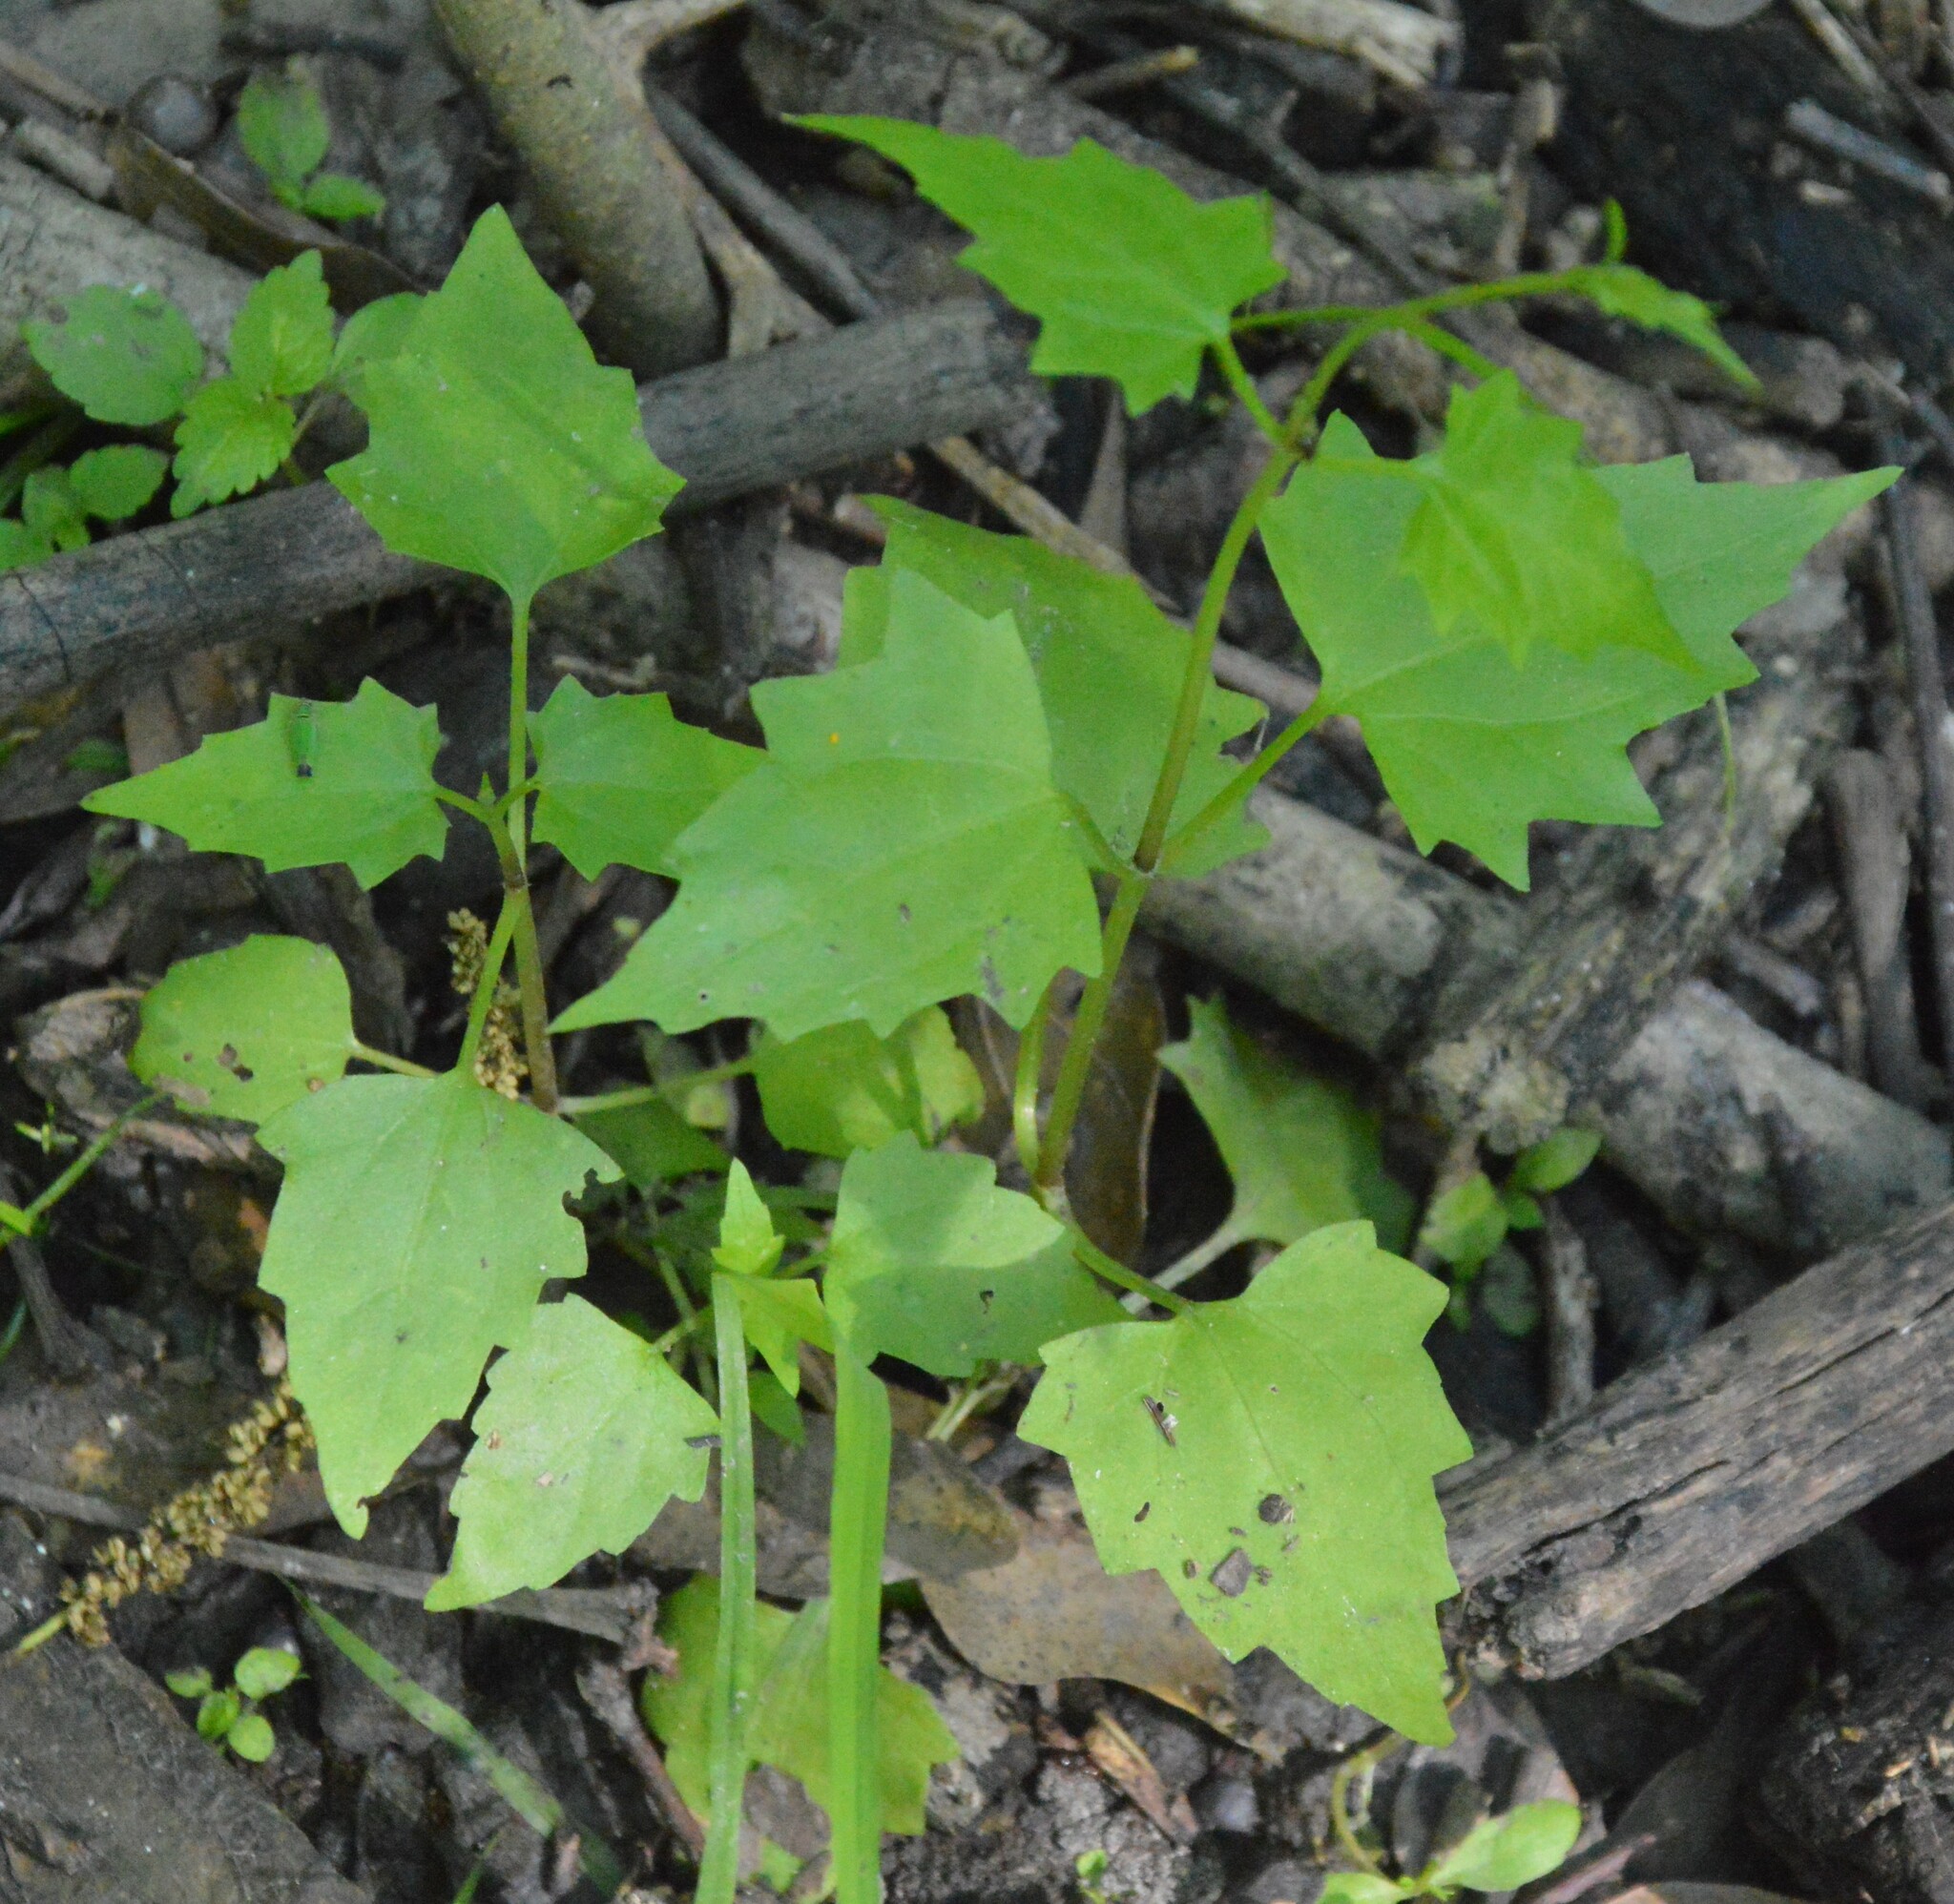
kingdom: Plantae
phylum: Tracheophyta
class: Magnoliopsida
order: Asterales
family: Asteraceae
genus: Mikania
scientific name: Mikania scandens
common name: Climbing hempvine
